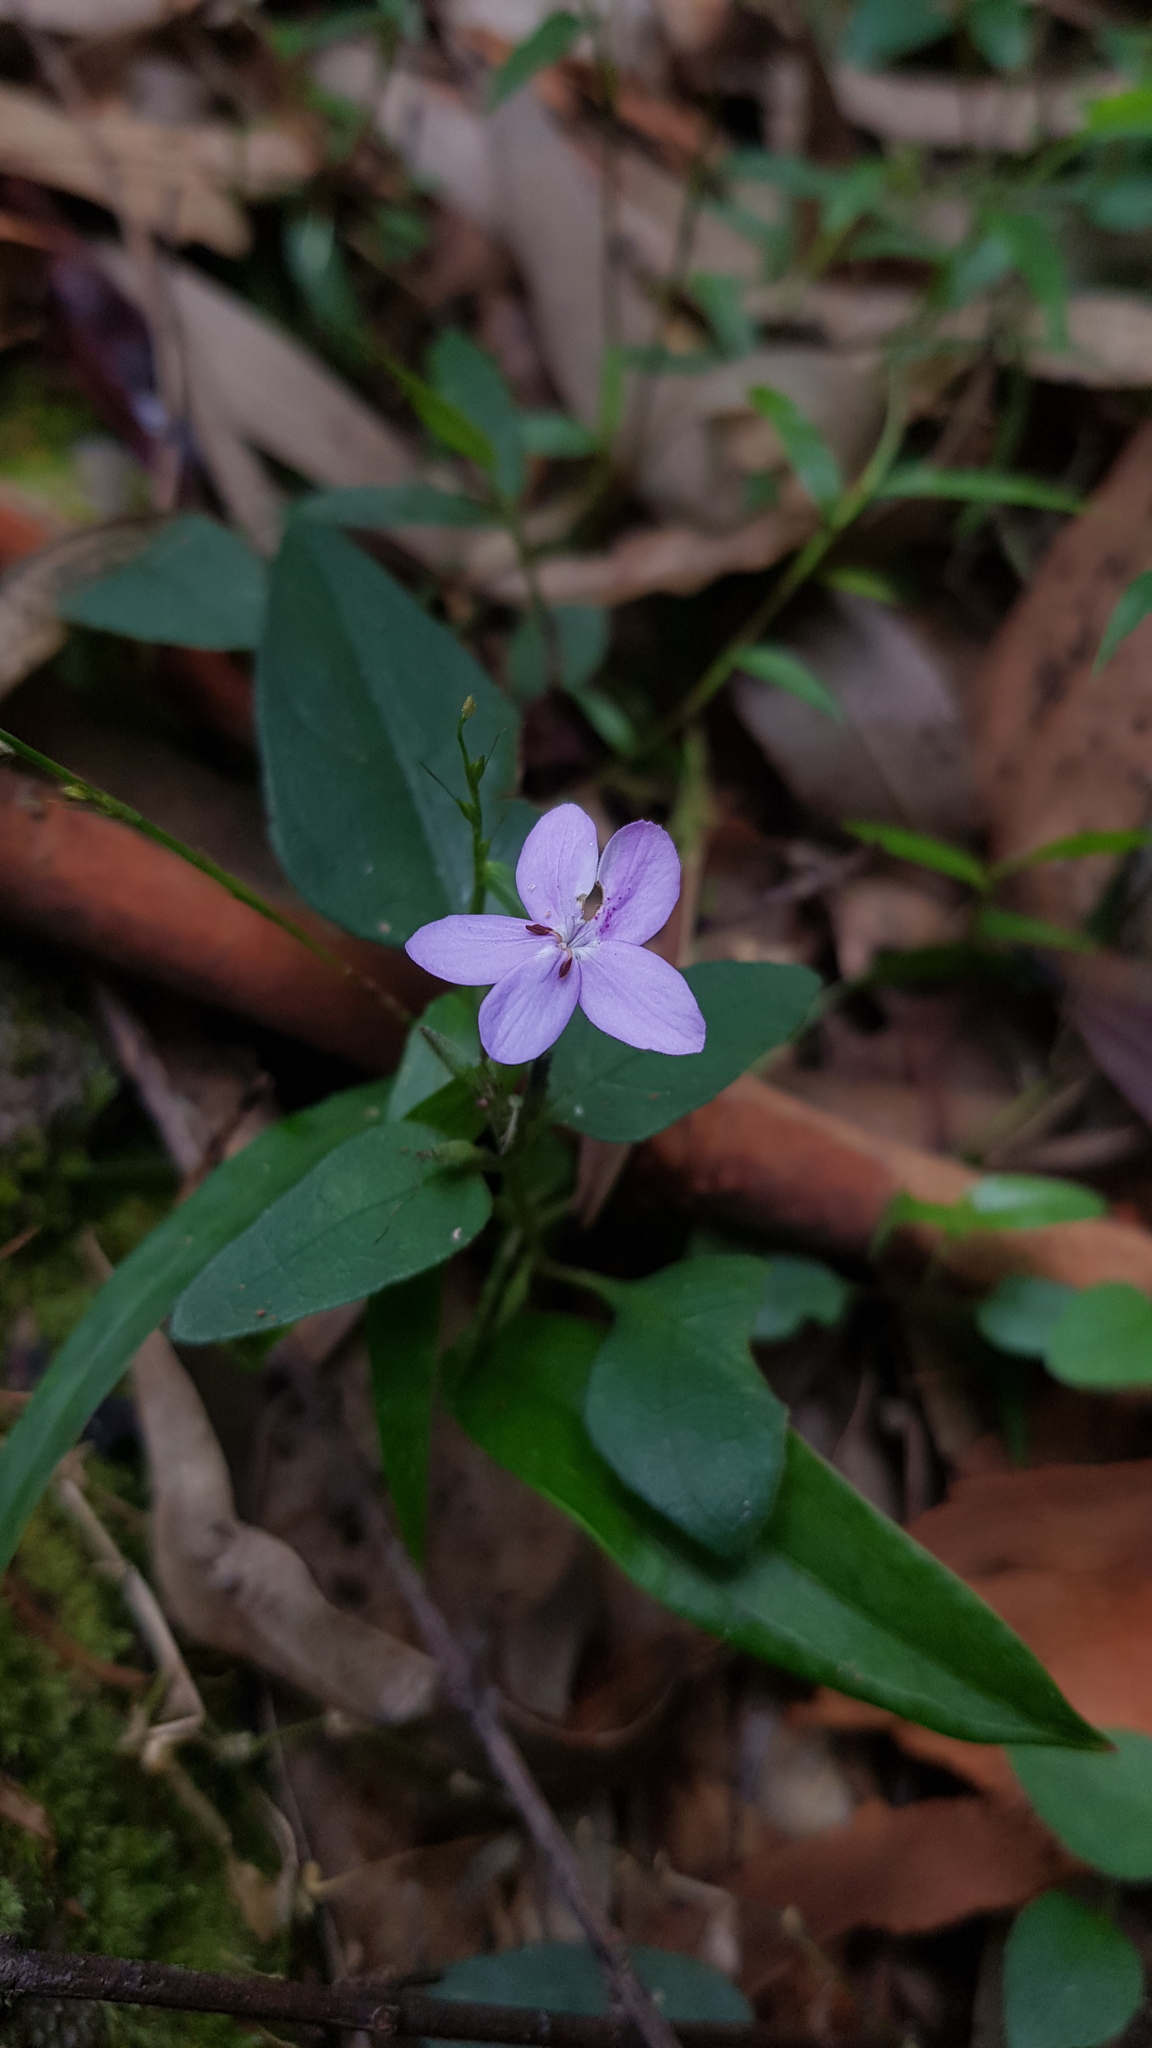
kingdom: Plantae
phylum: Tracheophyta
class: Magnoliopsida
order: Lamiales
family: Acanthaceae
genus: Pseuderanthemum
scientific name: Pseuderanthemum variabile
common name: Night and afternoon
